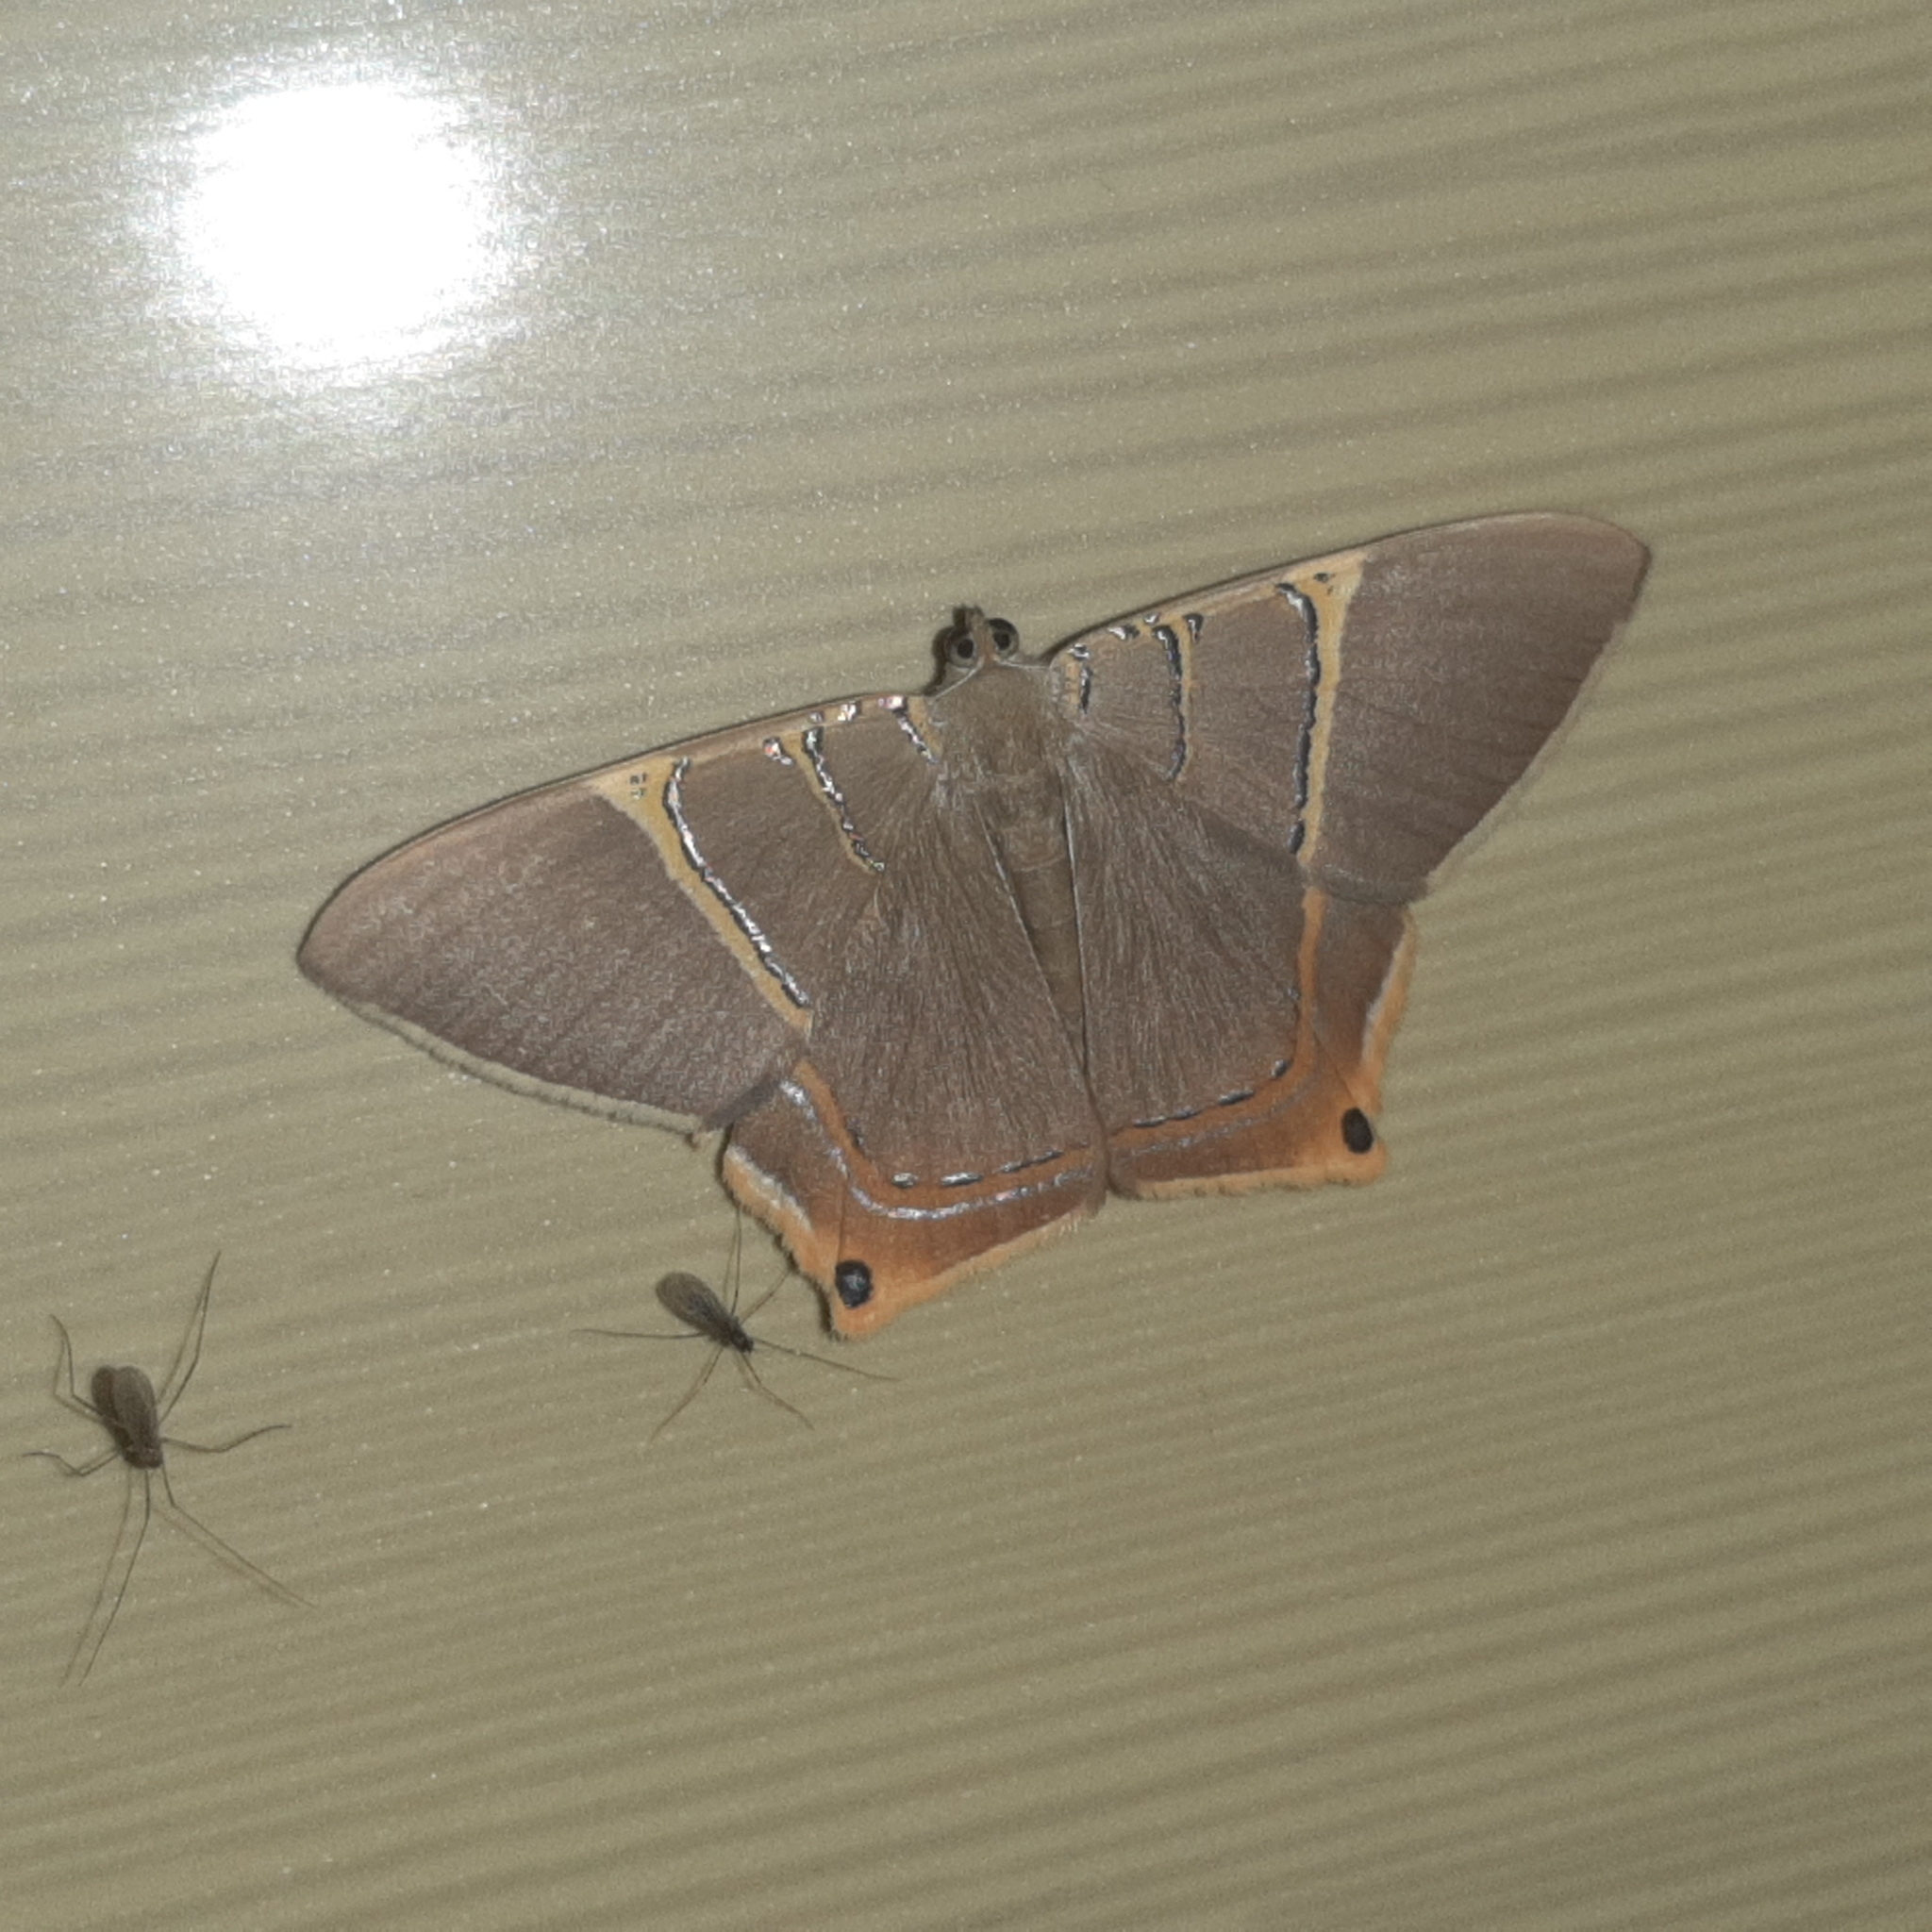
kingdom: Animalia
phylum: Arthropoda
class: Insecta
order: Lepidoptera
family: Geometridae
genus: Phrygionis
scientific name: Phrygionis polita
